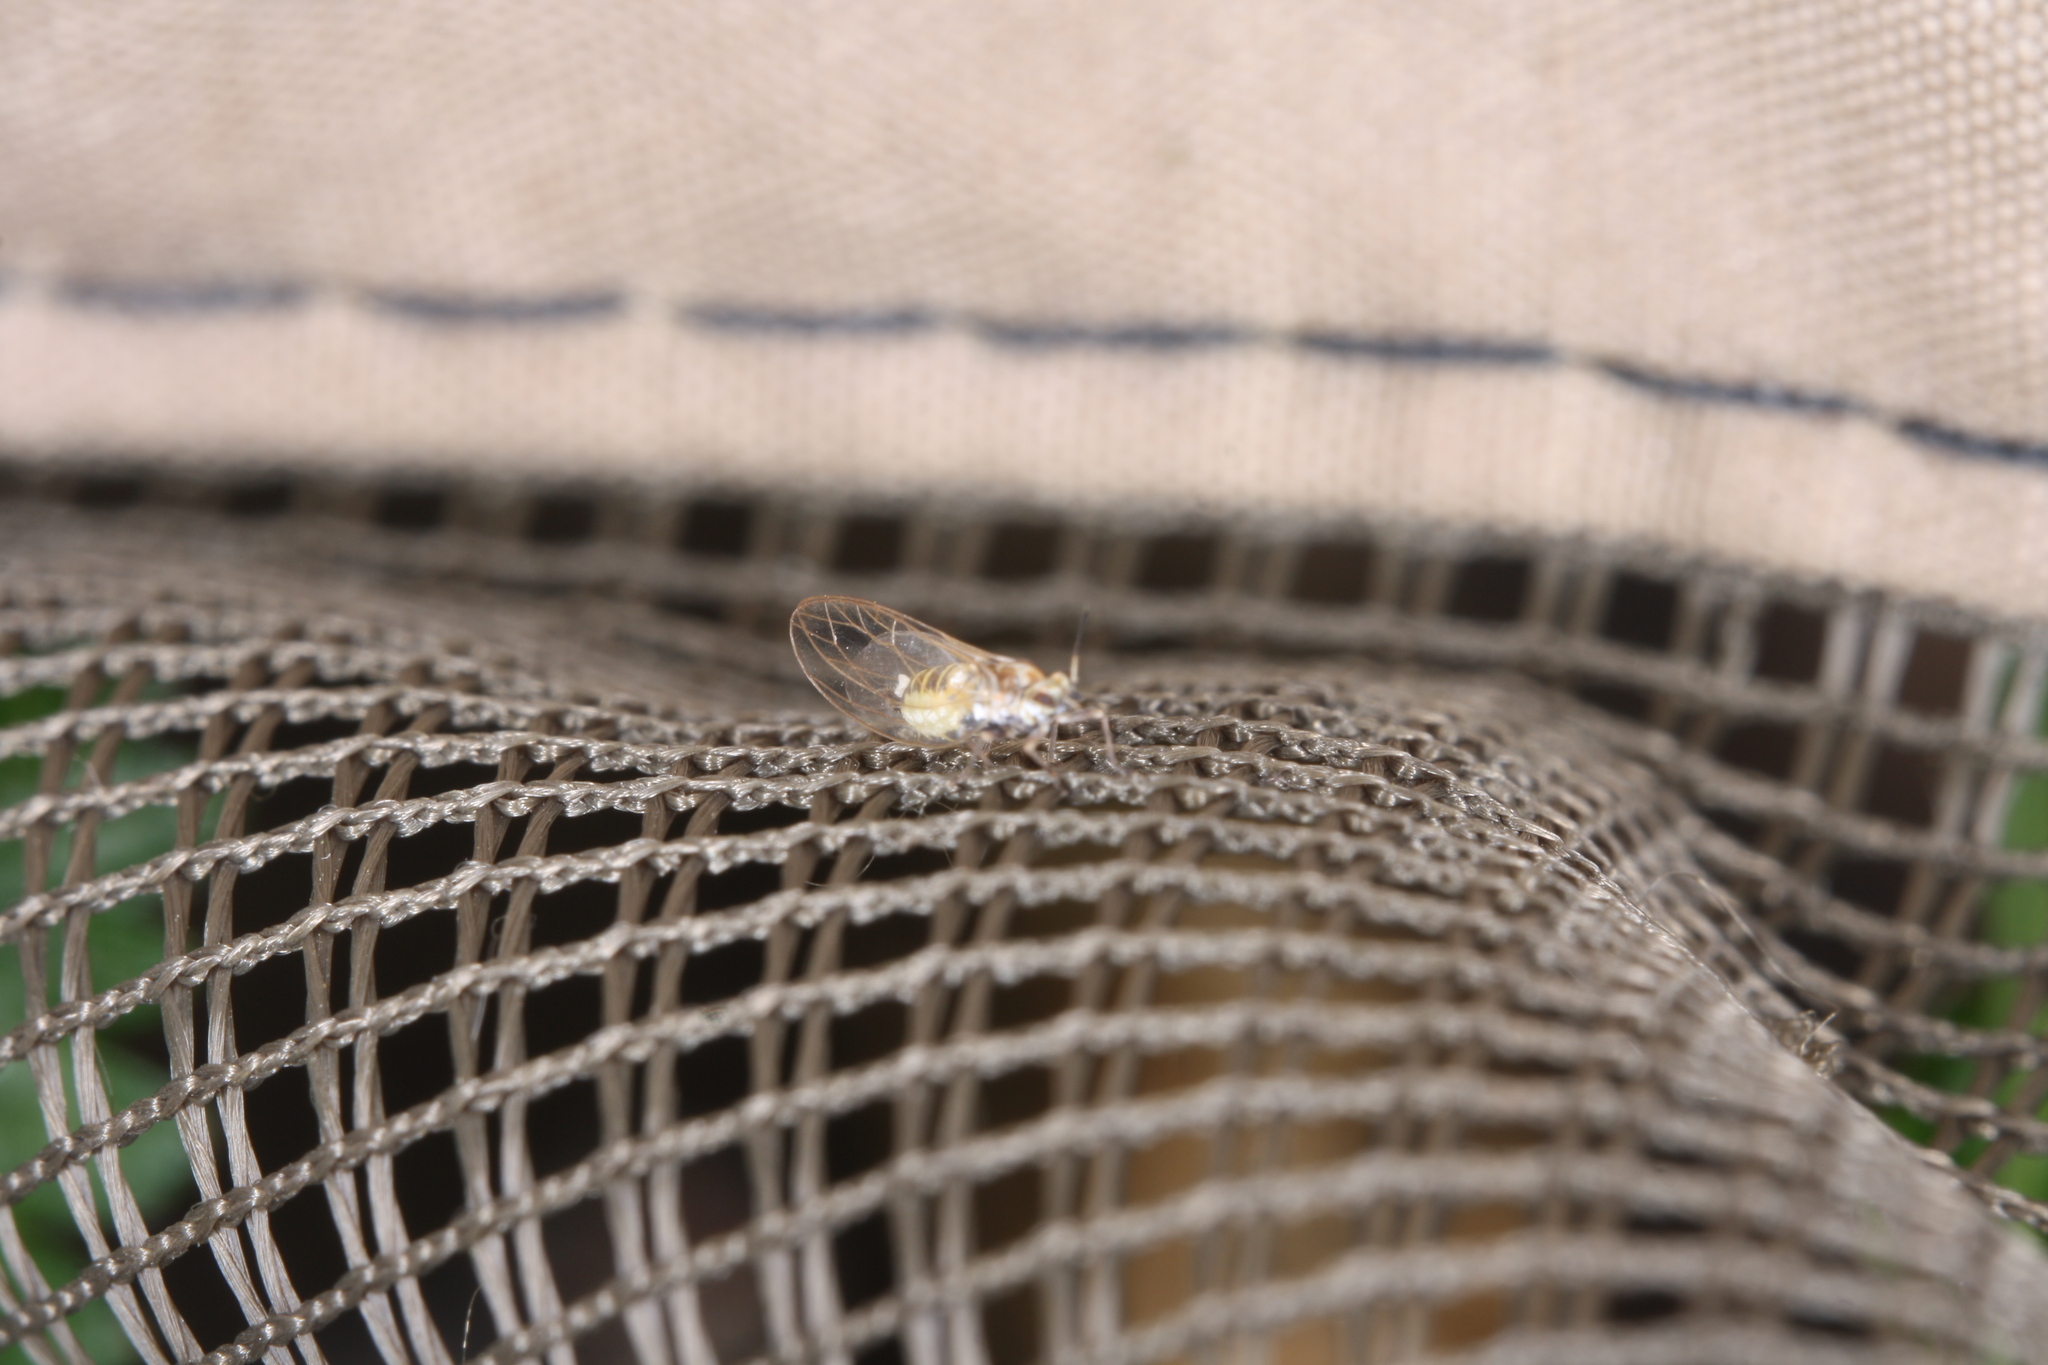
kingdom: Animalia
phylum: Arthropoda
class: Insecta
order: Hemiptera
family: Triozidae
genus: Trioza
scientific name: Trioza urticae
